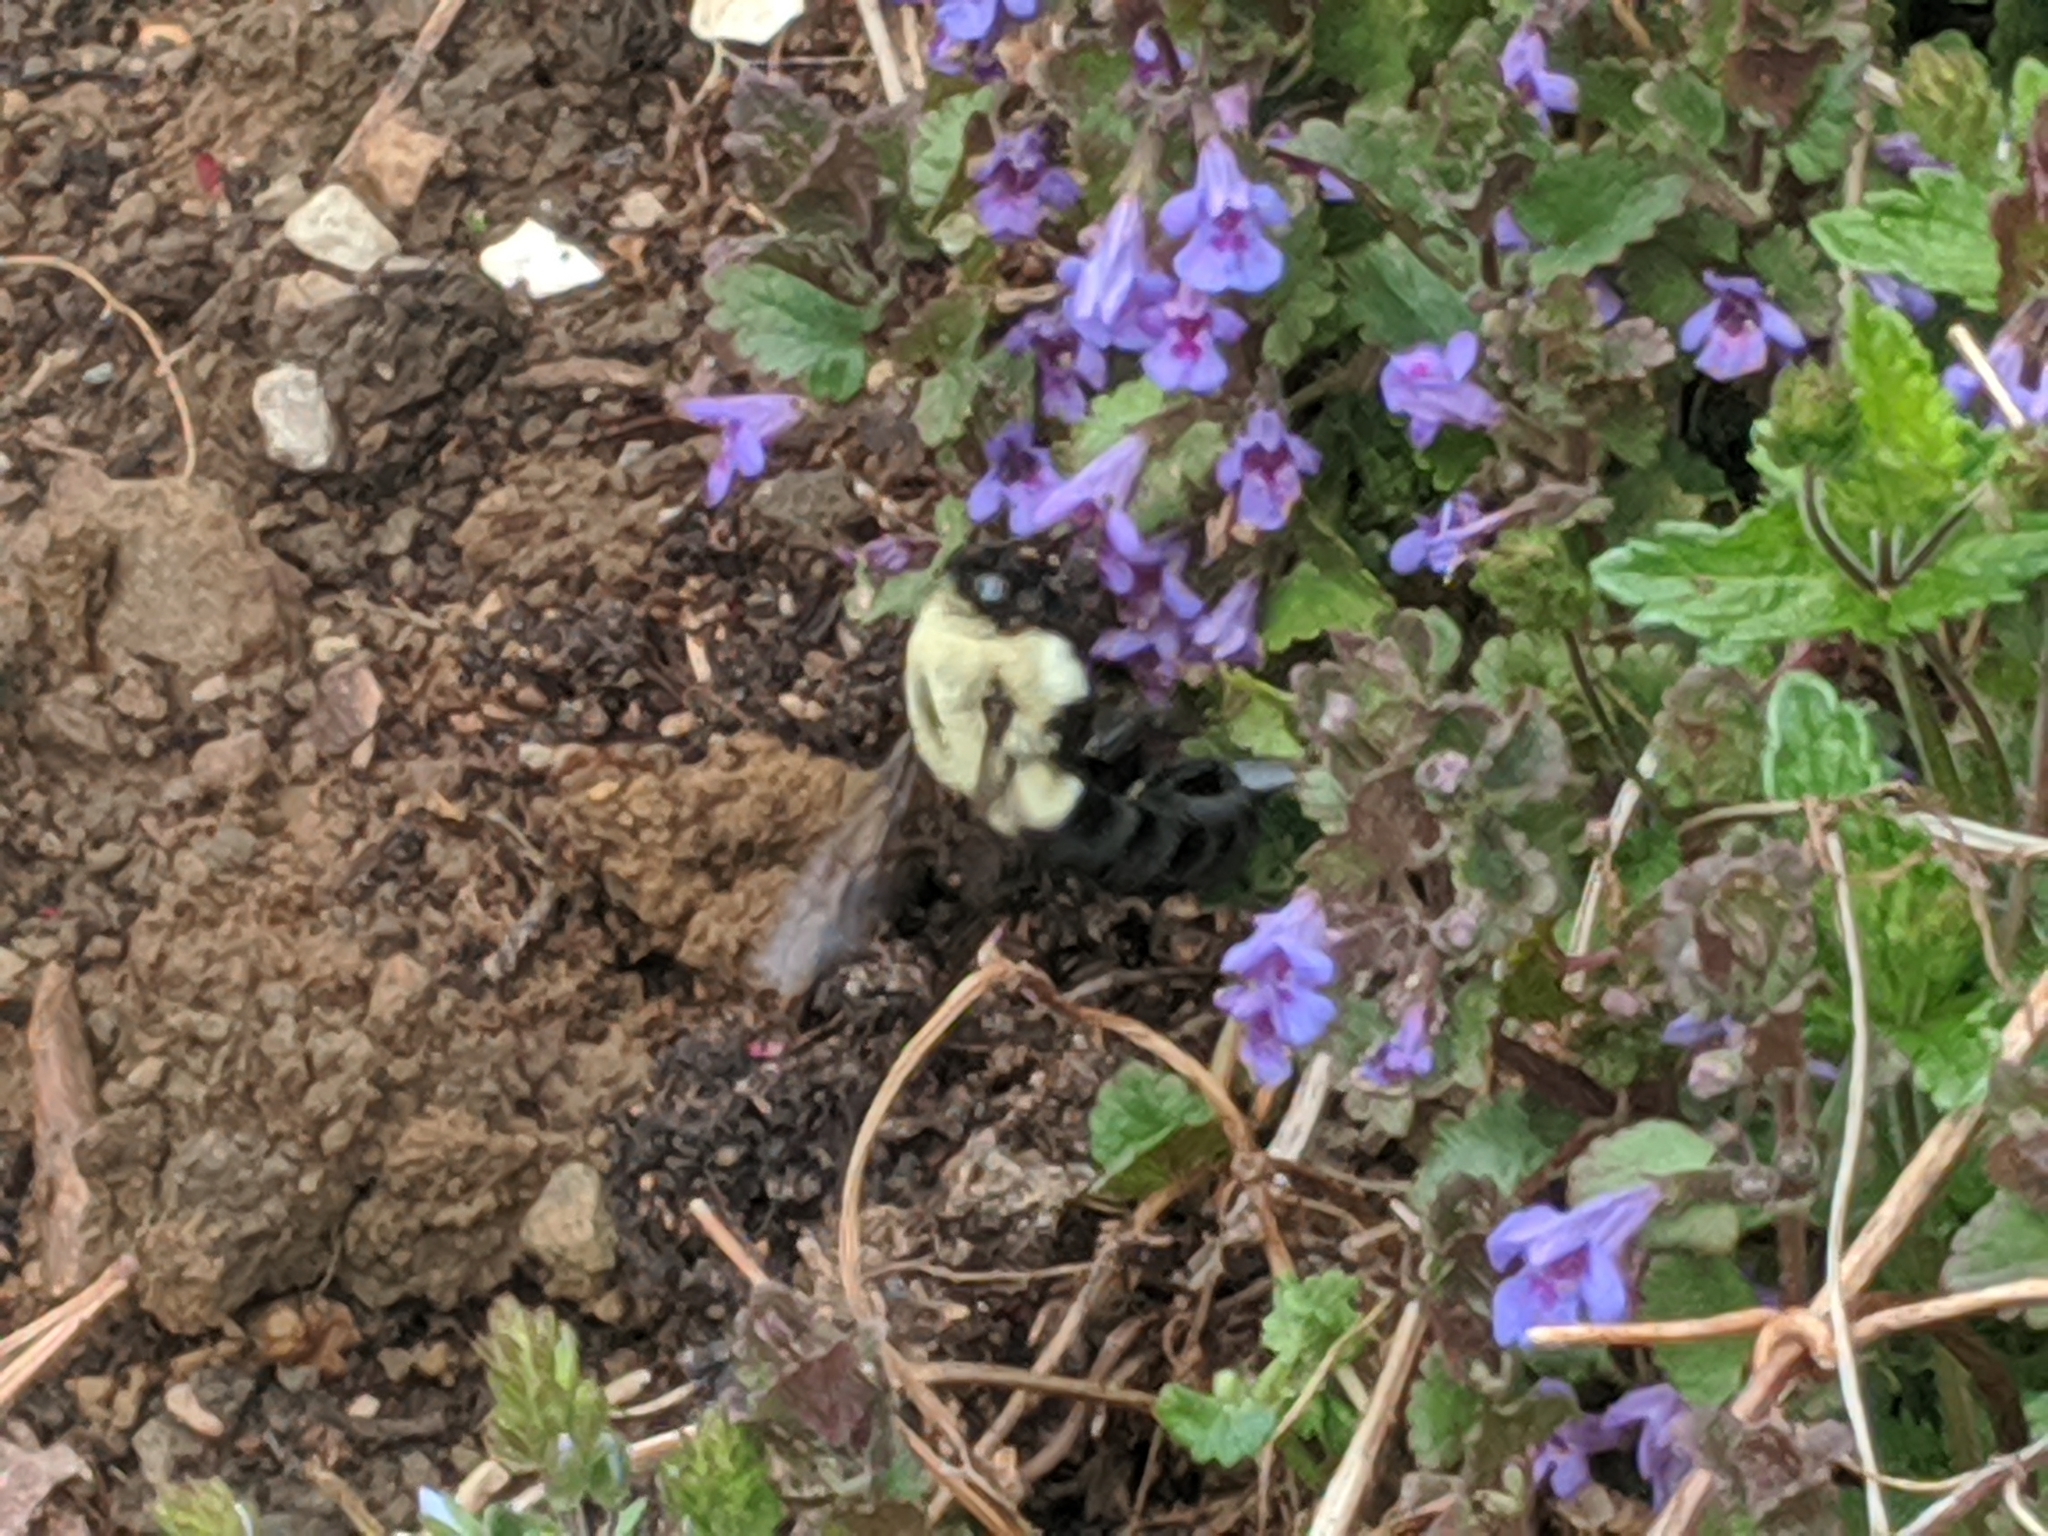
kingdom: Animalia
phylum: Arthropoda
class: Insecta
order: Hymenoptera
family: Apidae
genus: Bombus
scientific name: Bombus impatiens
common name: Common eastern bumble bee
